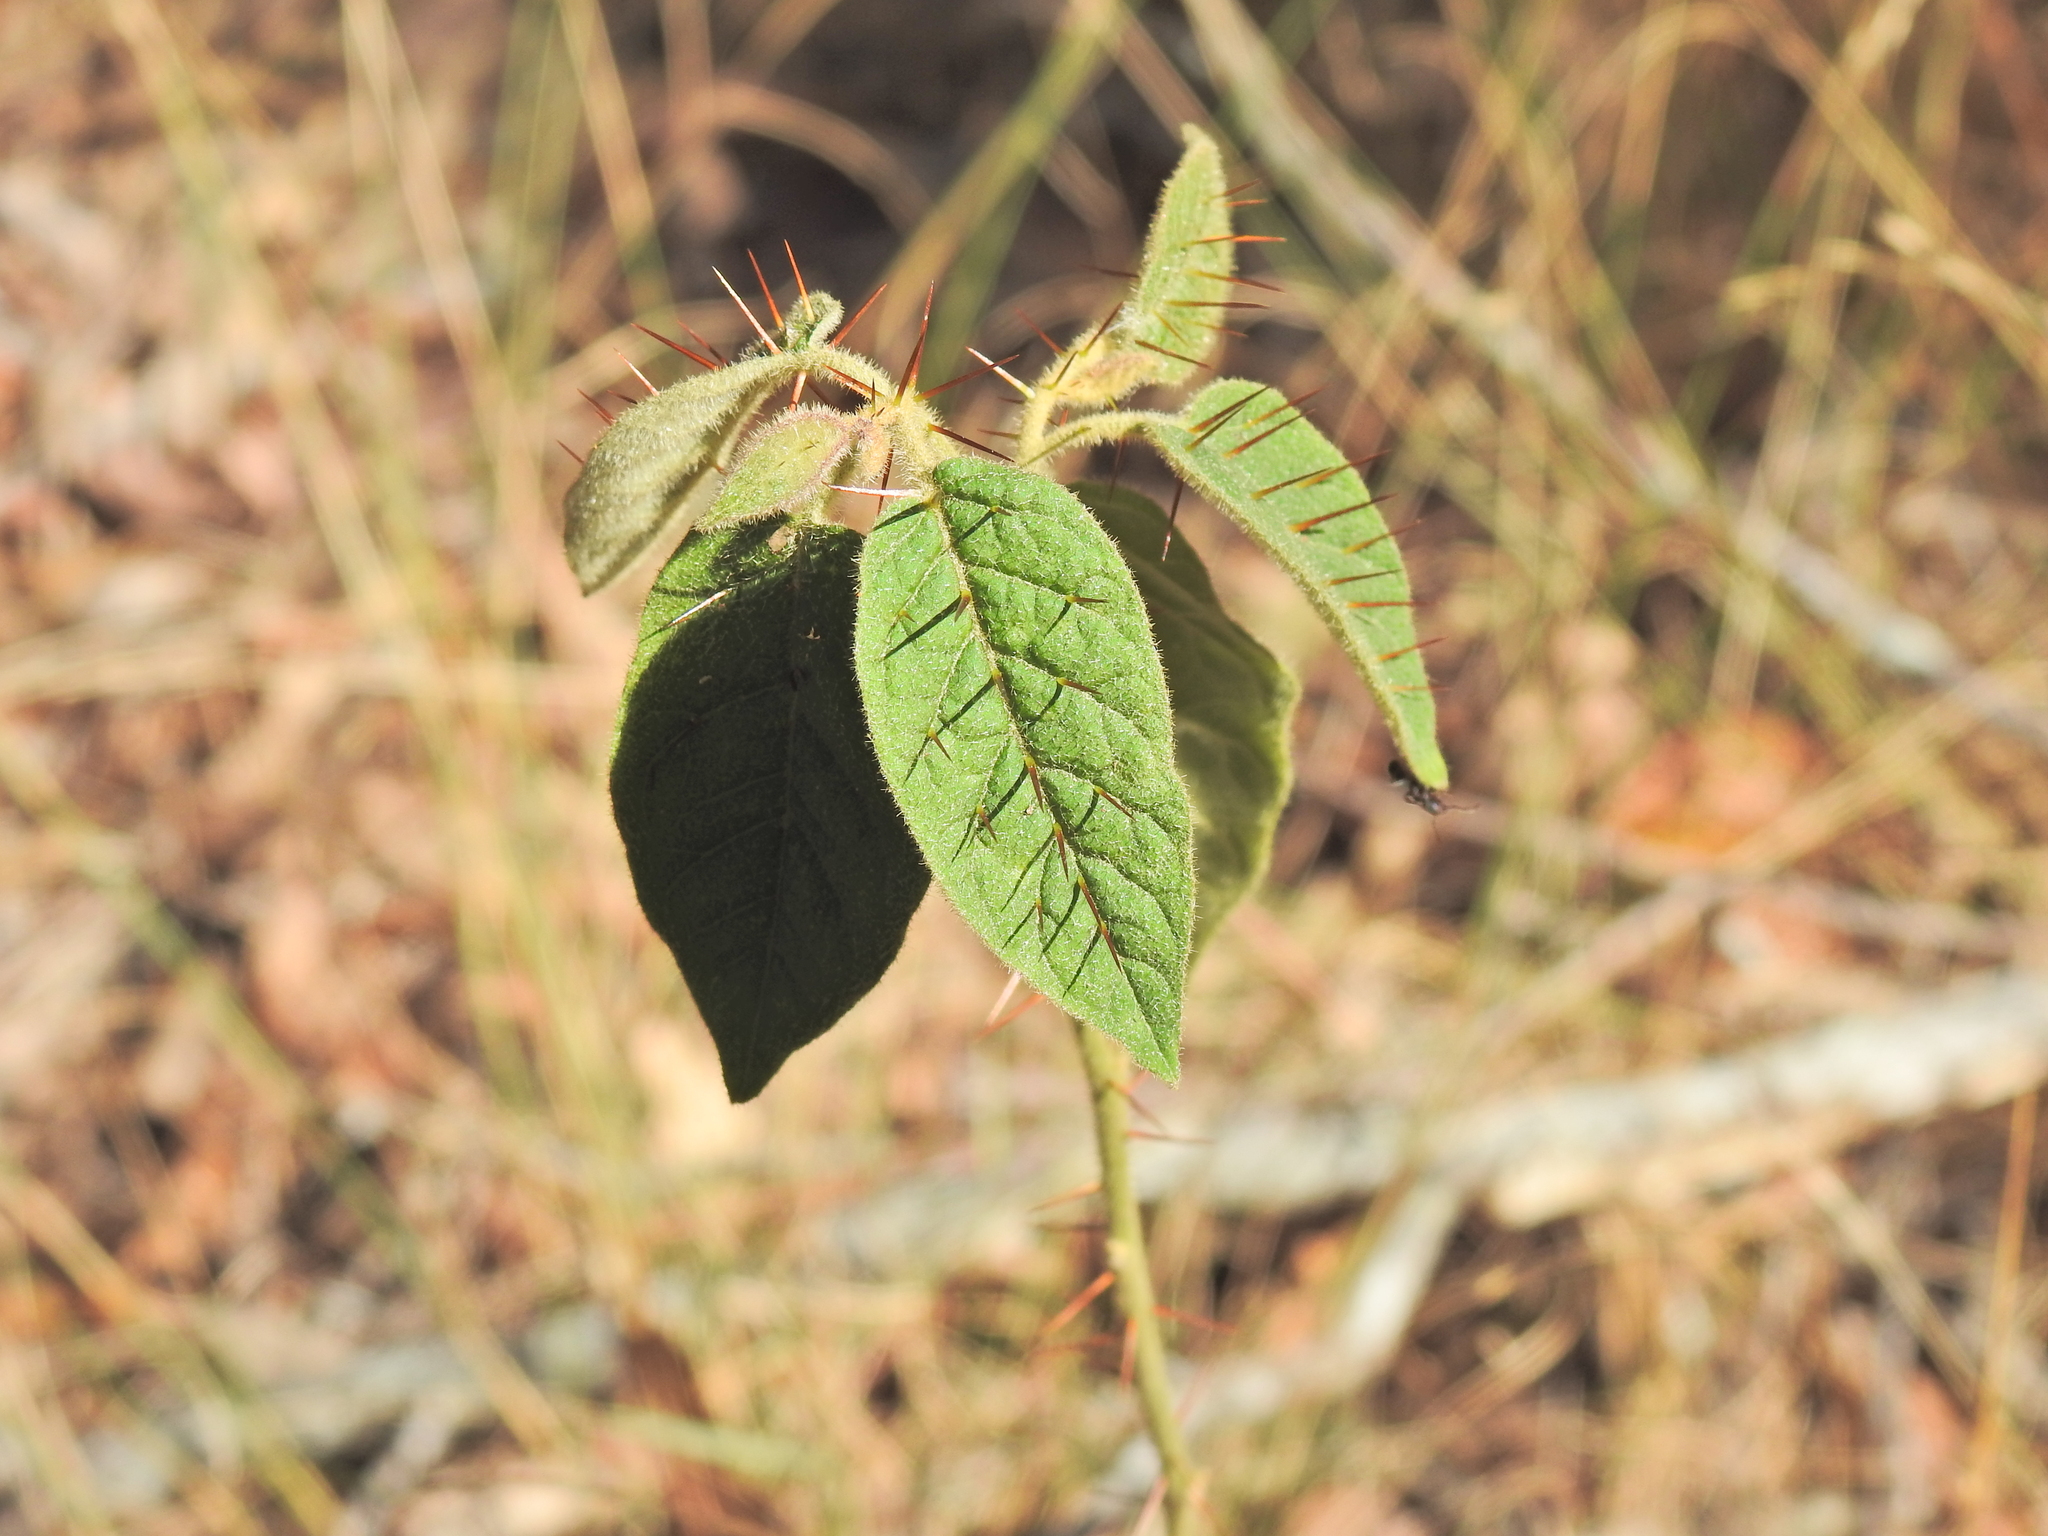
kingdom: Plantae
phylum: Tracheophyta
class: Magnoliopsida
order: Solanales
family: Solanaceae
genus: Solanum
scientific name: Solanum stelligerum
